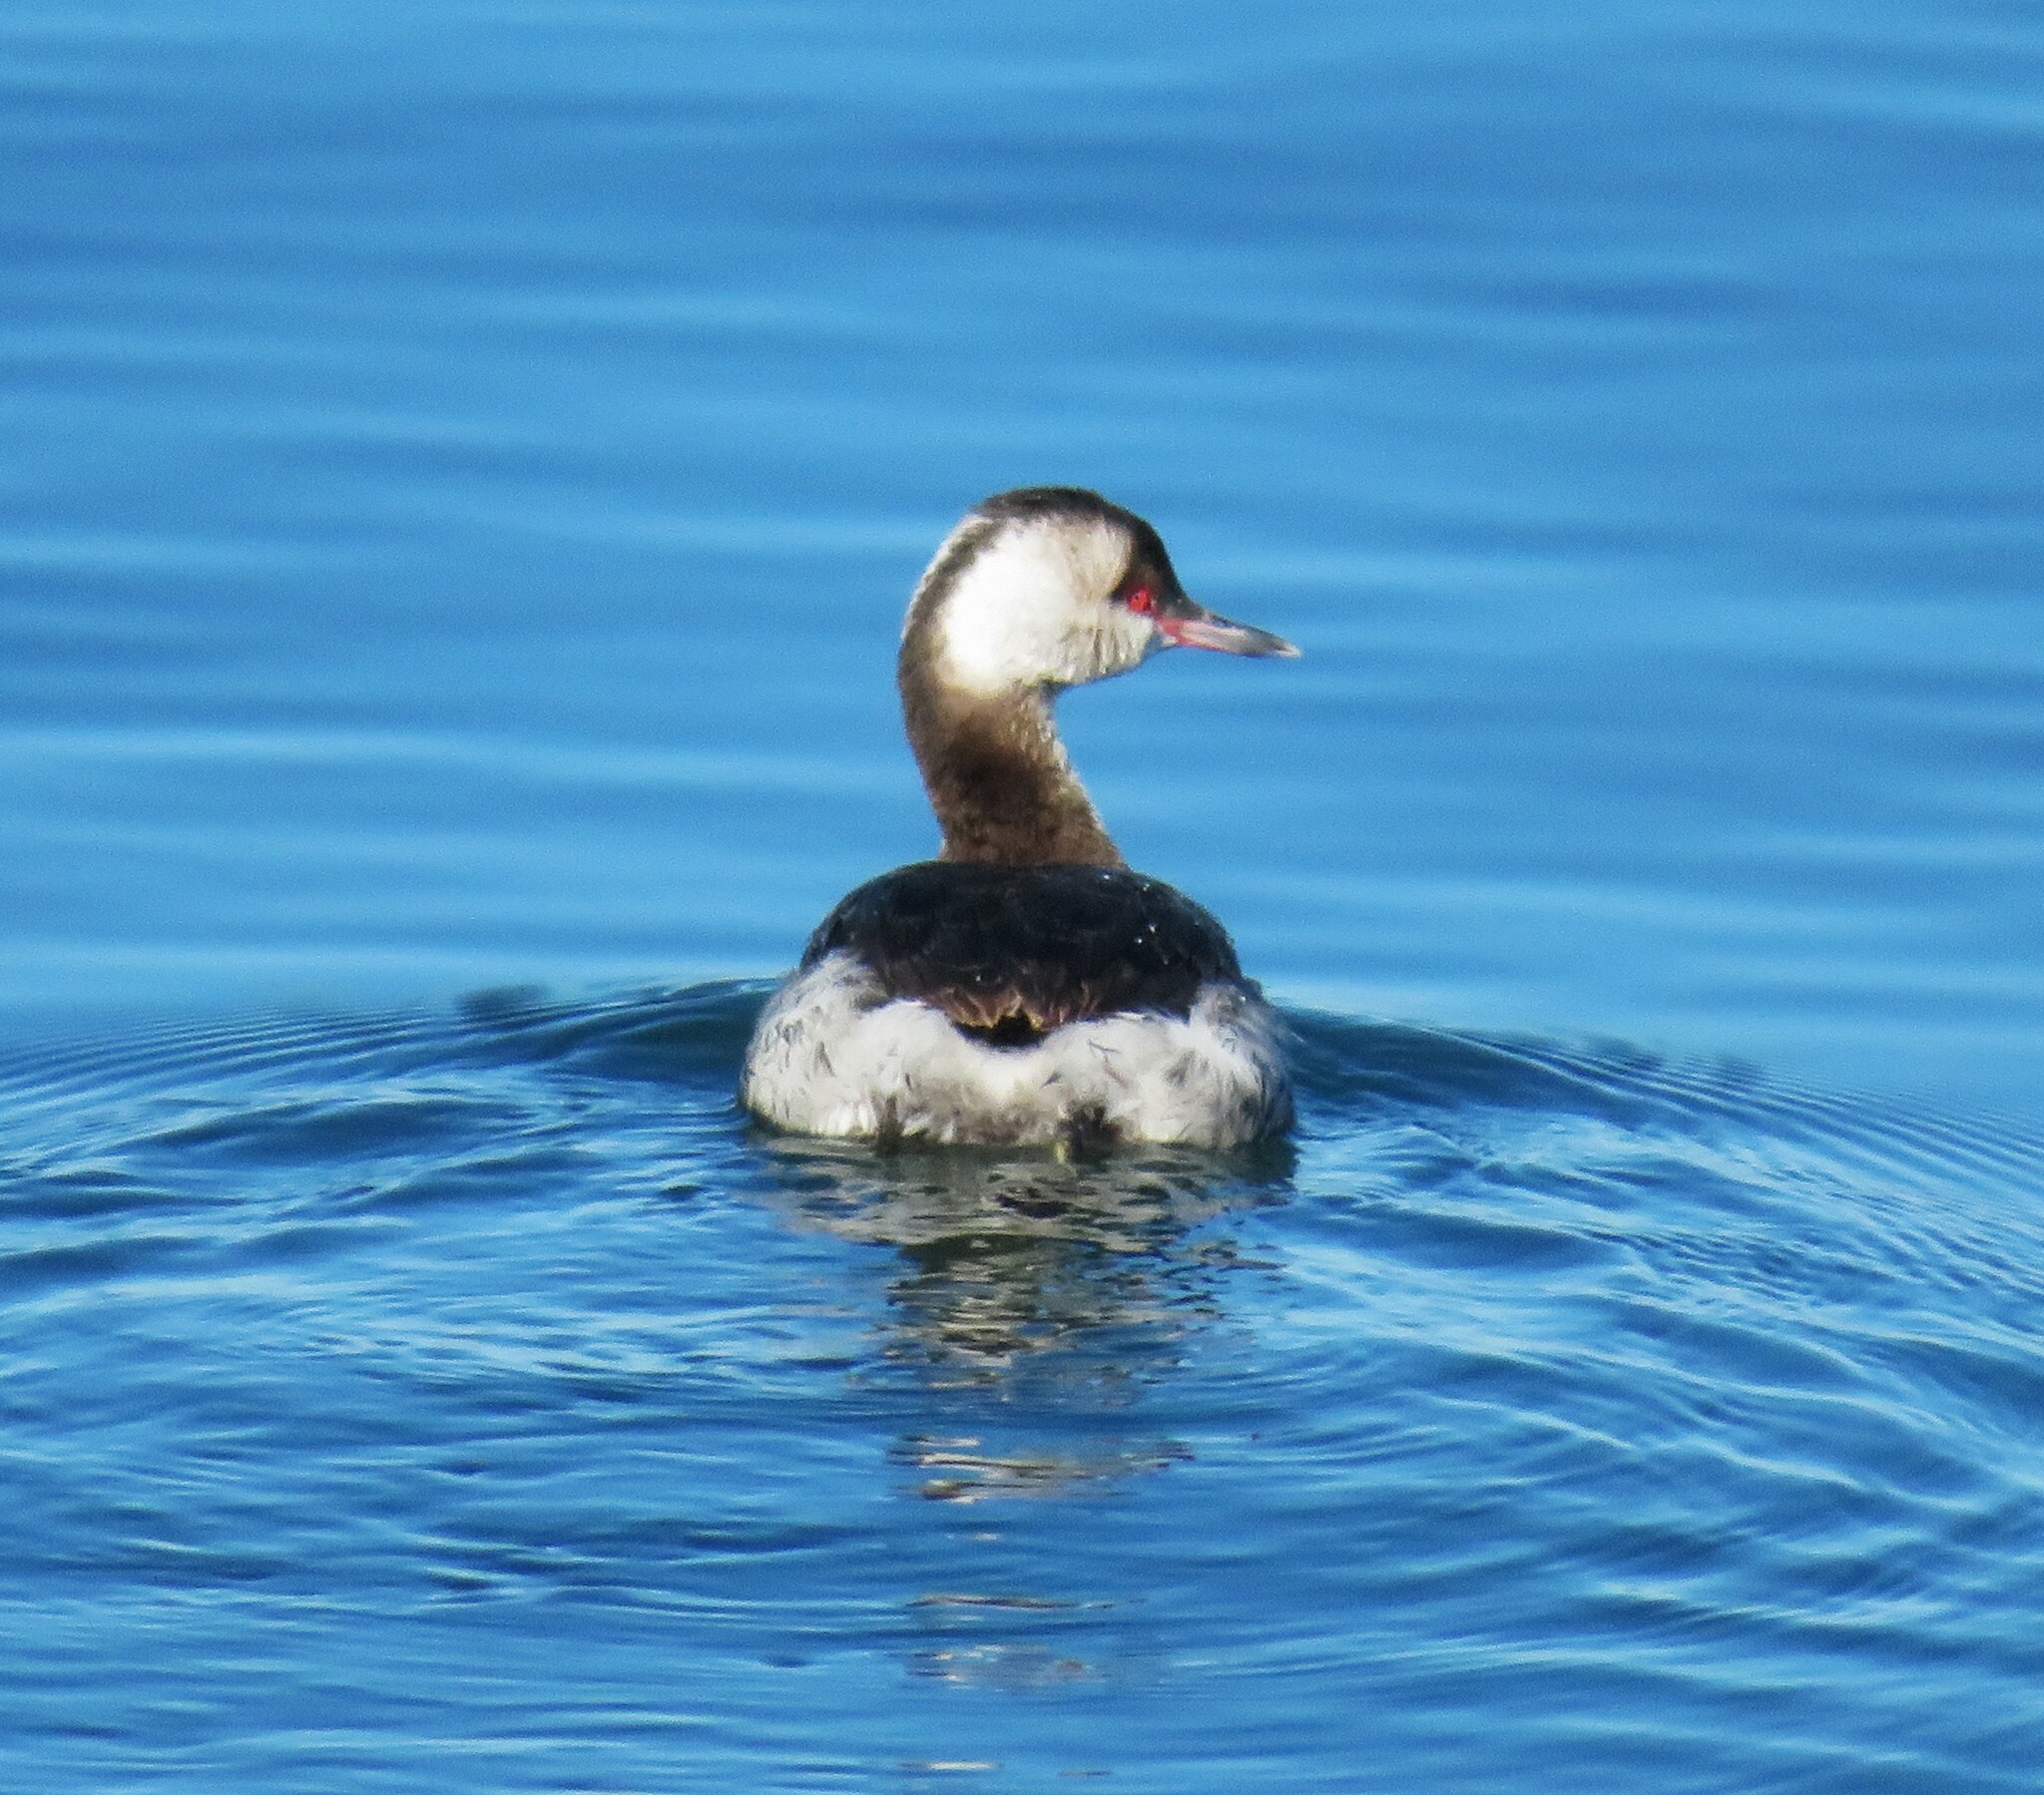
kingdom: Animalia
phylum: Chordata
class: Aves
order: Podicipediformes
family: Podicipedidae
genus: Podiceps
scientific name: Podiceps auritus
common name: Horned grebe
